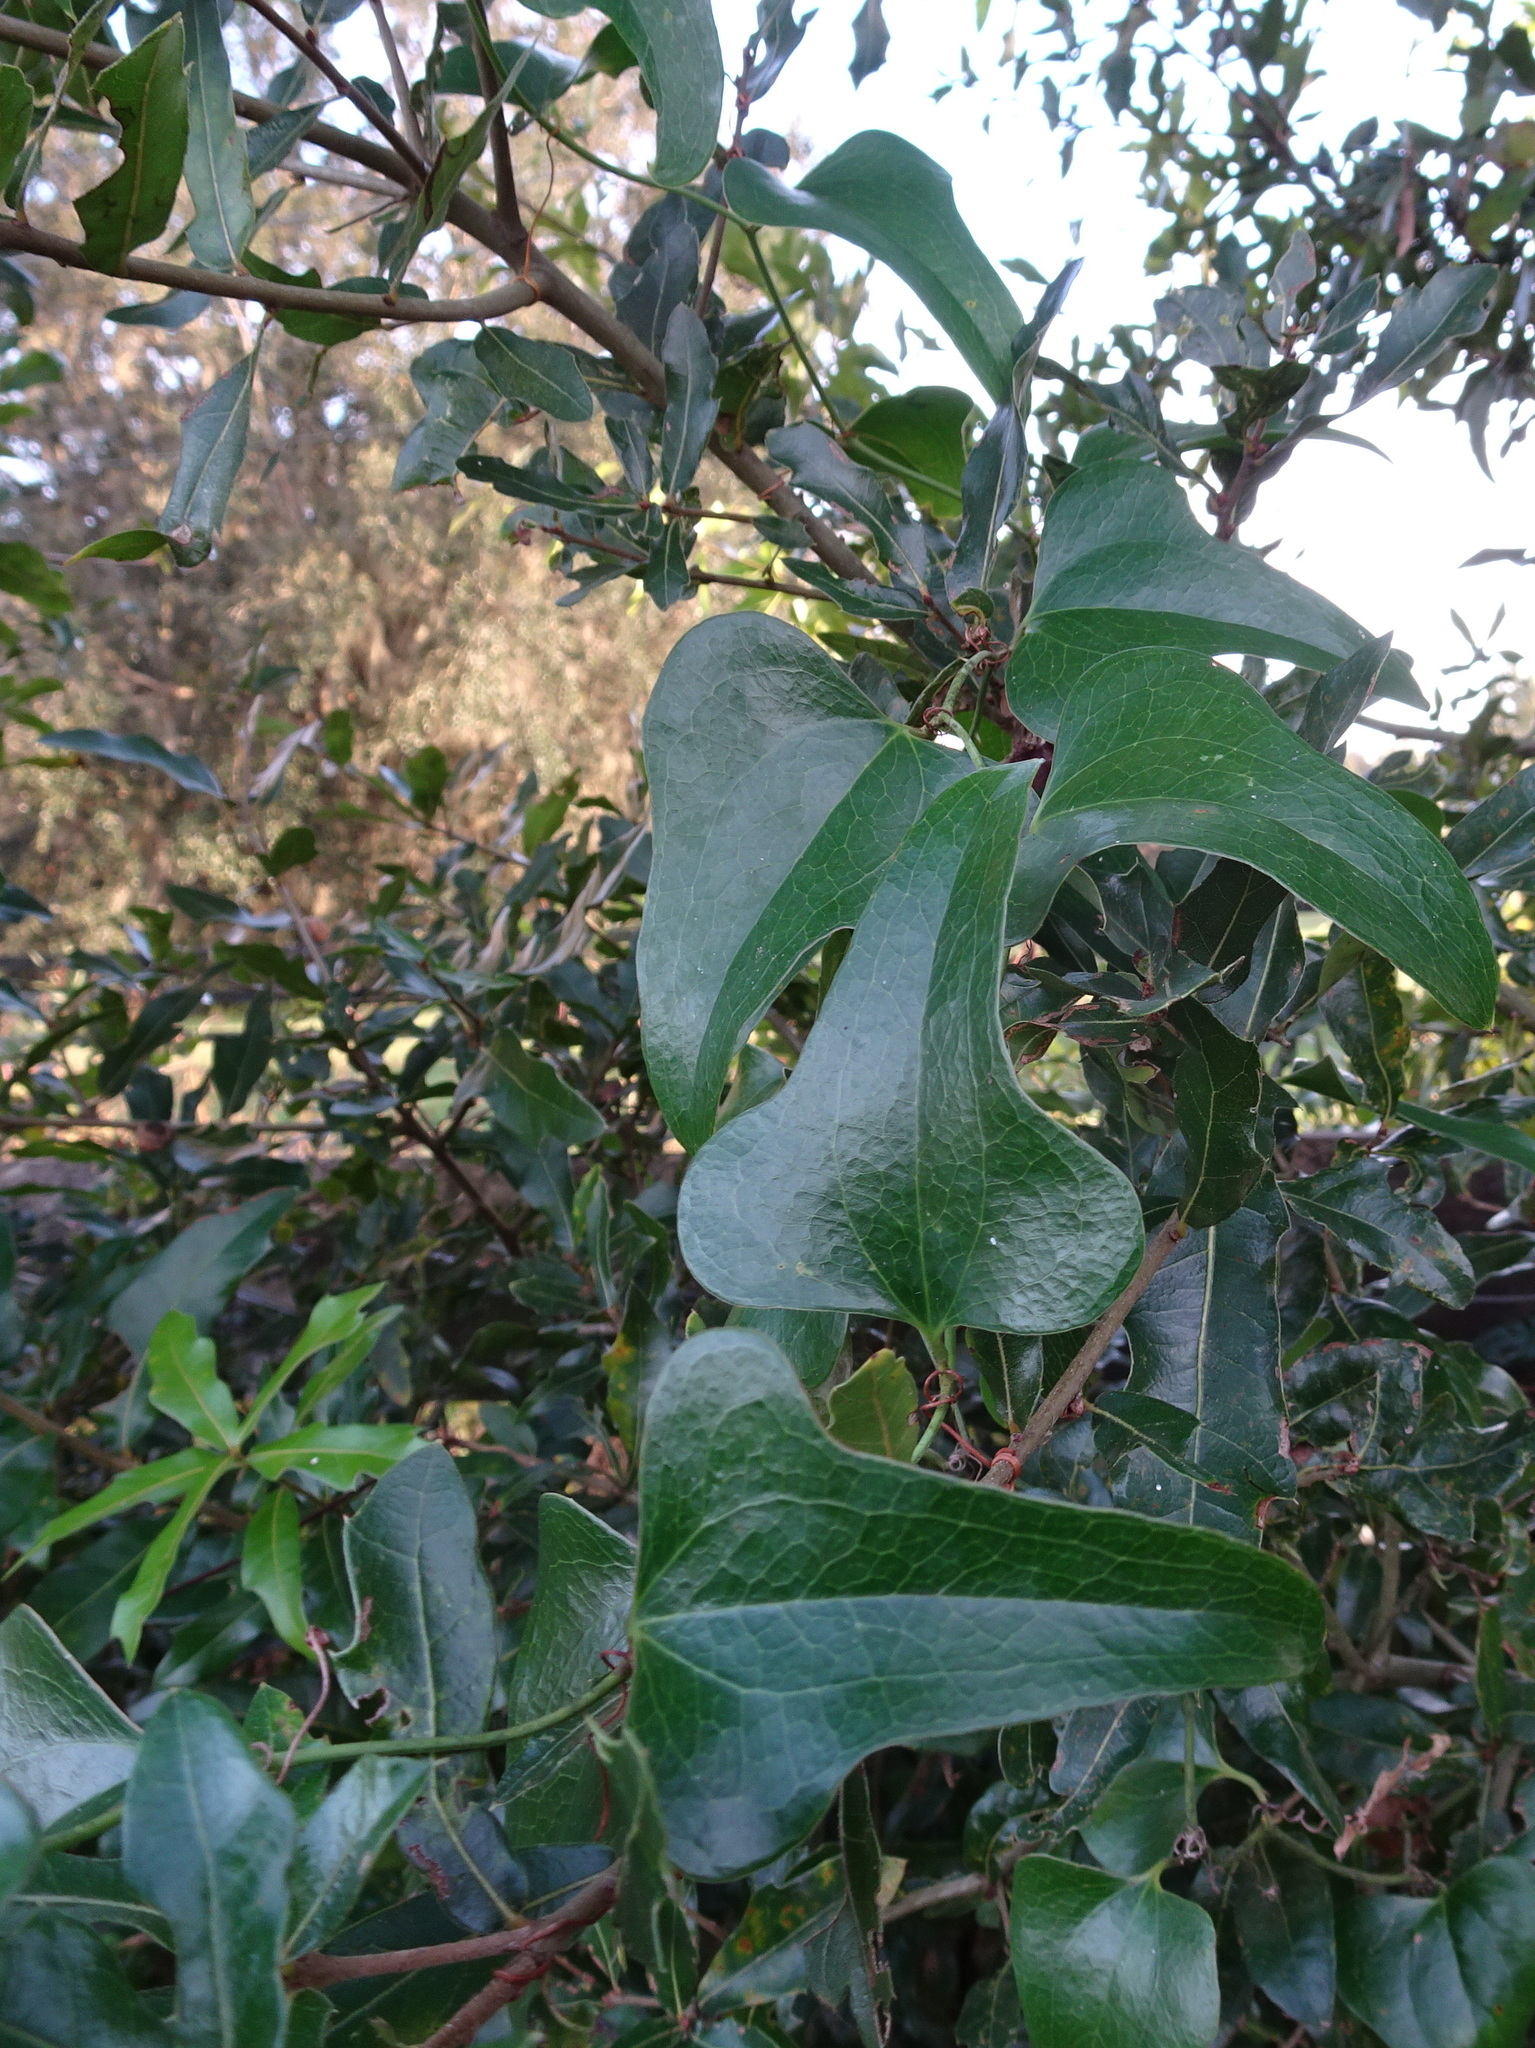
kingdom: Plantae
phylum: Tracheophyta
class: Liliopsida
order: Liliales
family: Smilacaceae
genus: Smilax
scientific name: Smilax auriculata
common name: Wild bamboo
